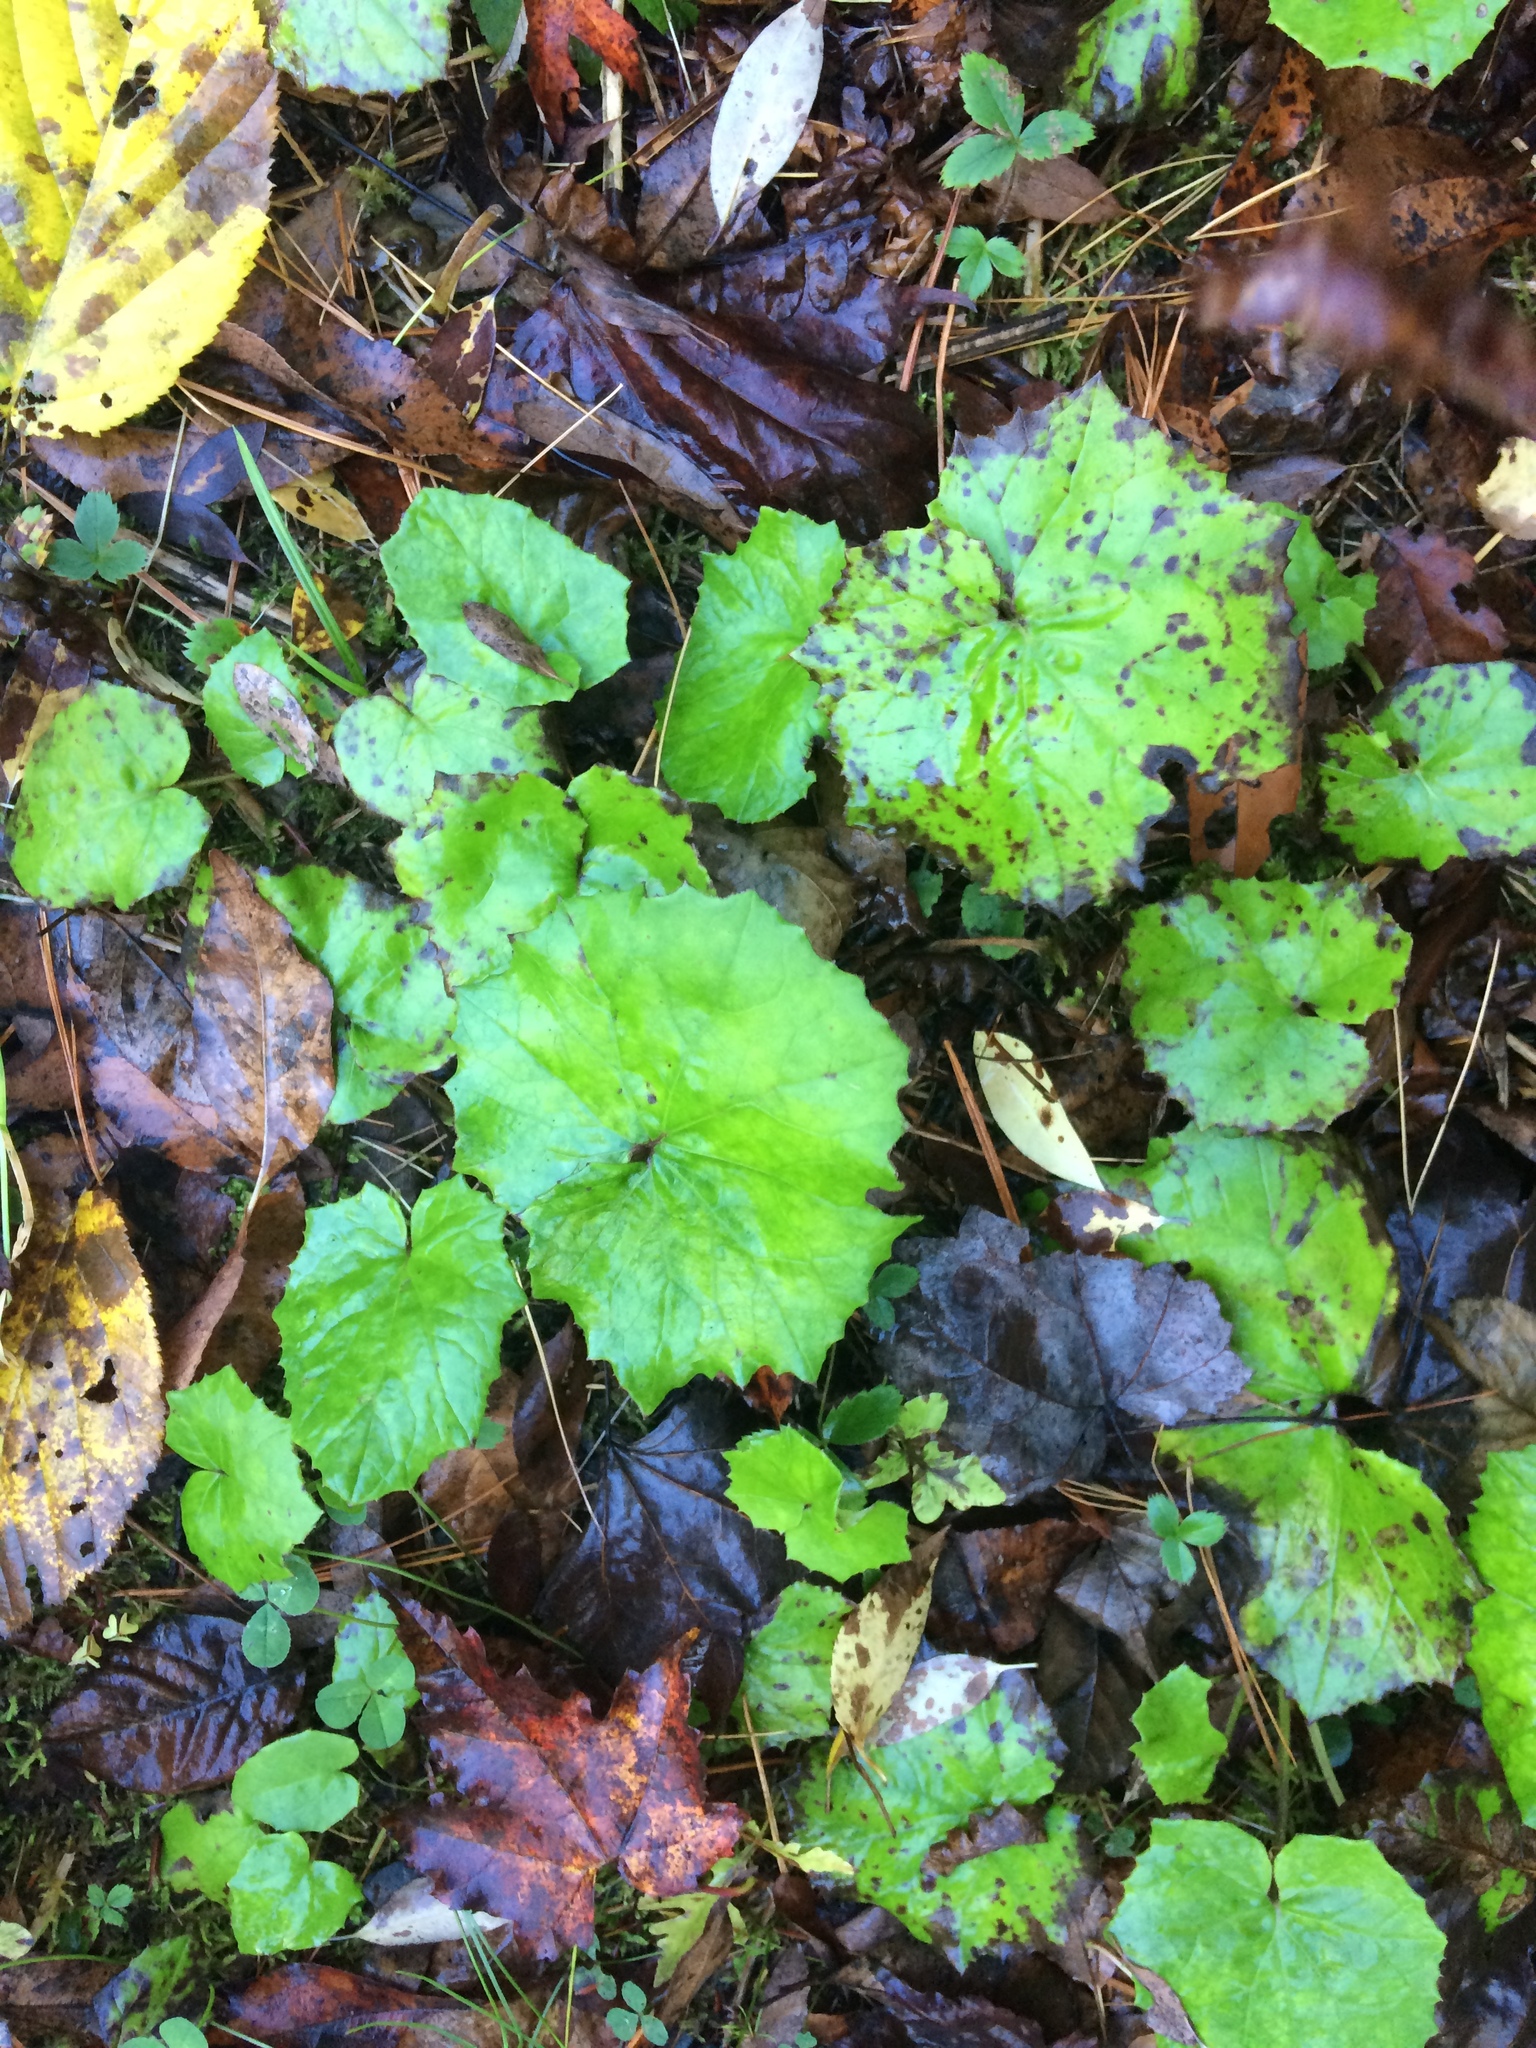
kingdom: Plantae
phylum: Tracheophyta
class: Magnoliopsida
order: Asterales
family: Asteraceae
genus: Tussilago
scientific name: Tussilago farfara
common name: Coltsfoot
